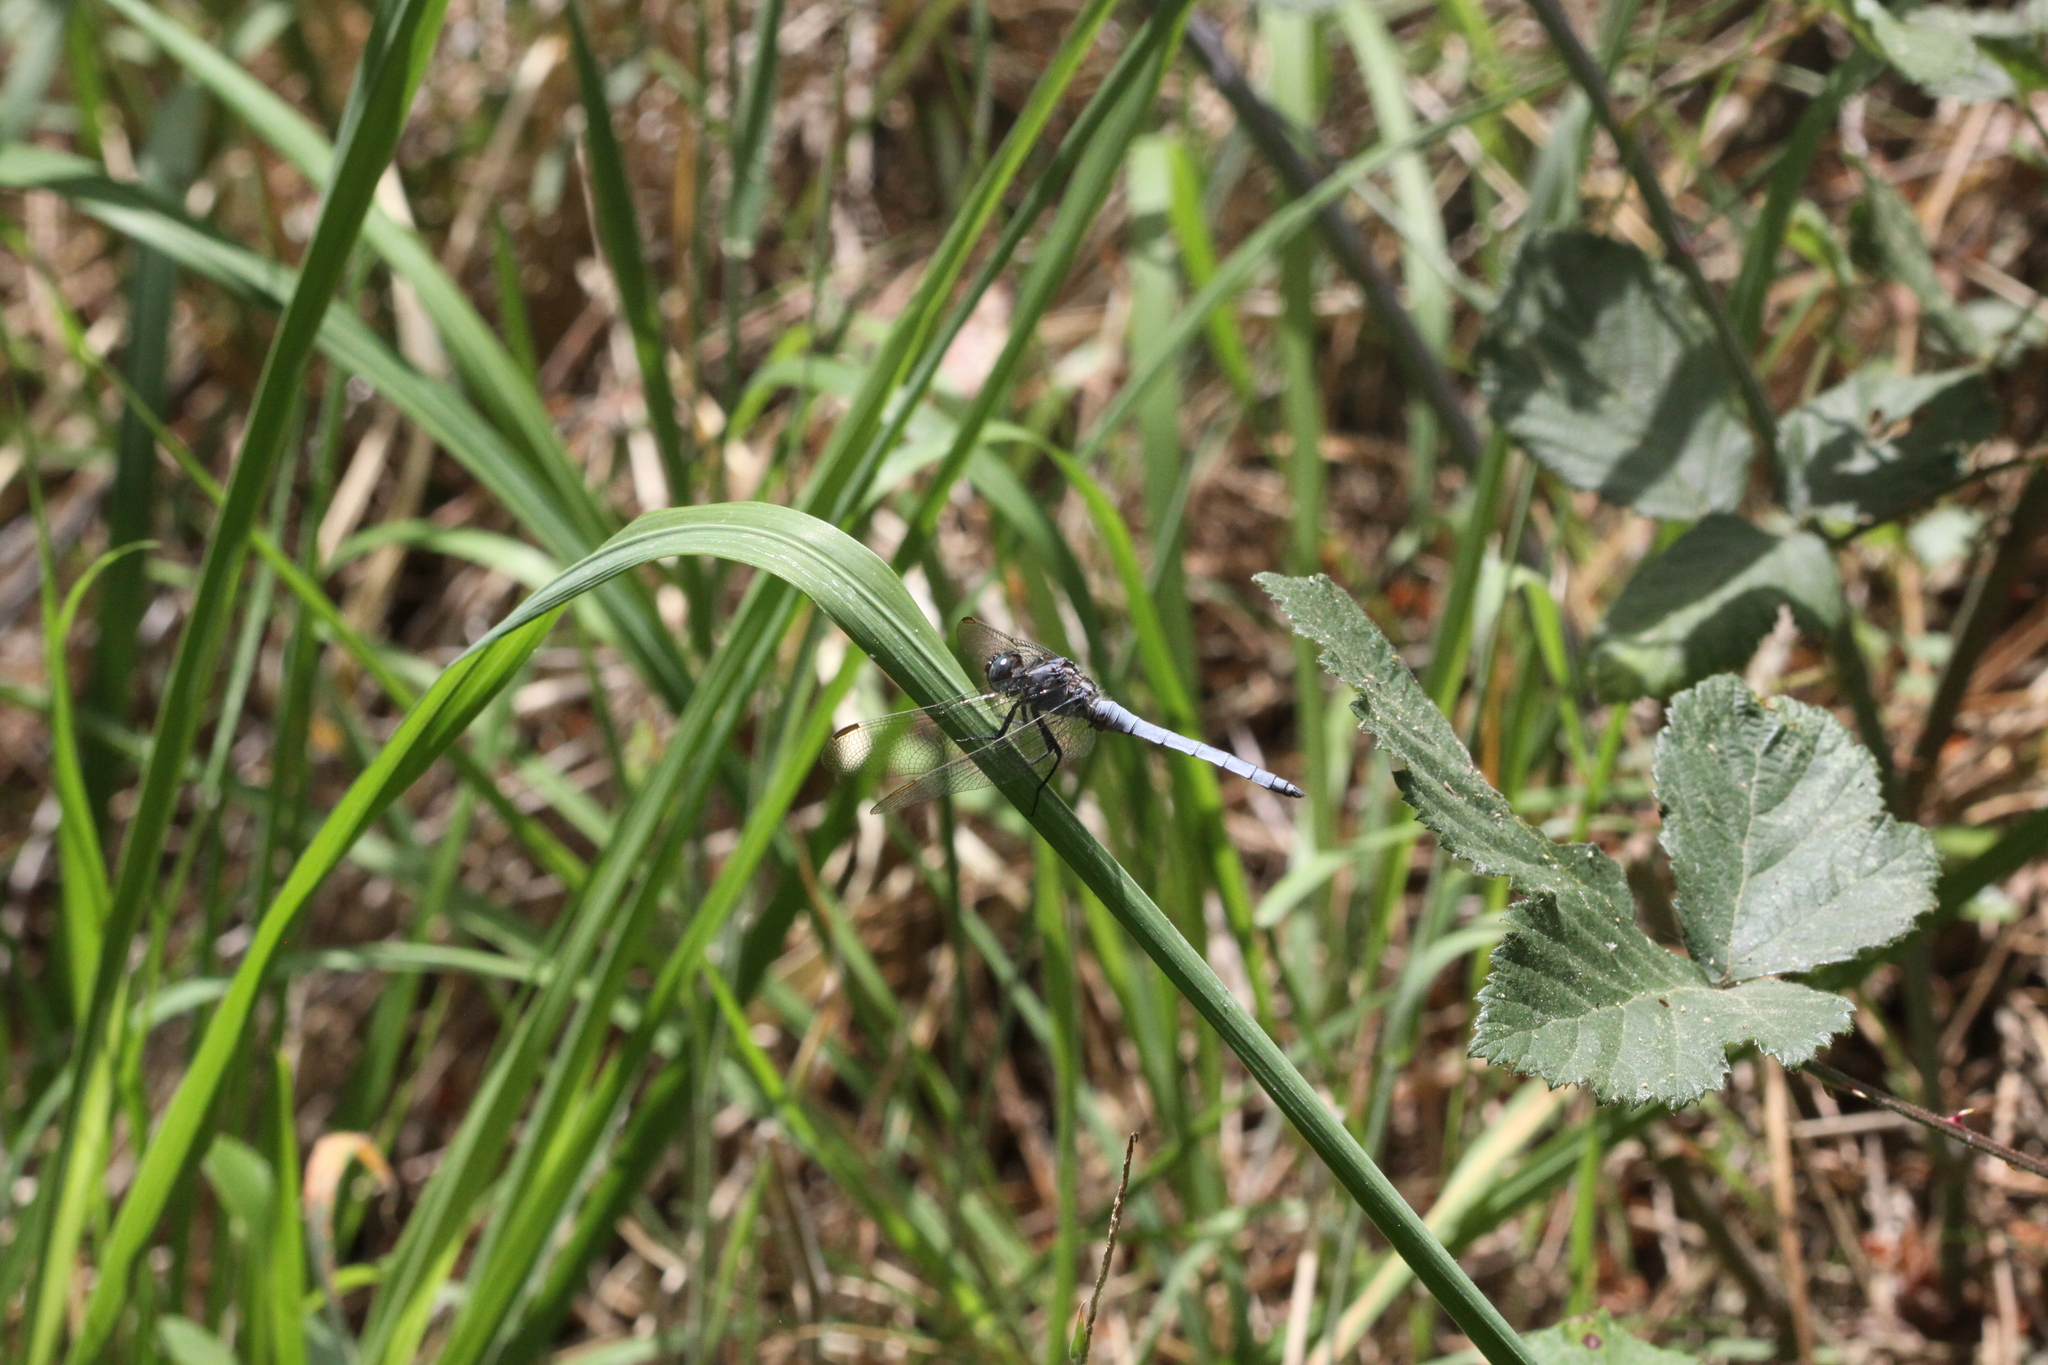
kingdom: Animalia
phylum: Arthropoda
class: Insecta
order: Odonata
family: Libellulidae
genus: Orthetrum
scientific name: Orthetrum coerulescens
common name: Keeled skimmer
